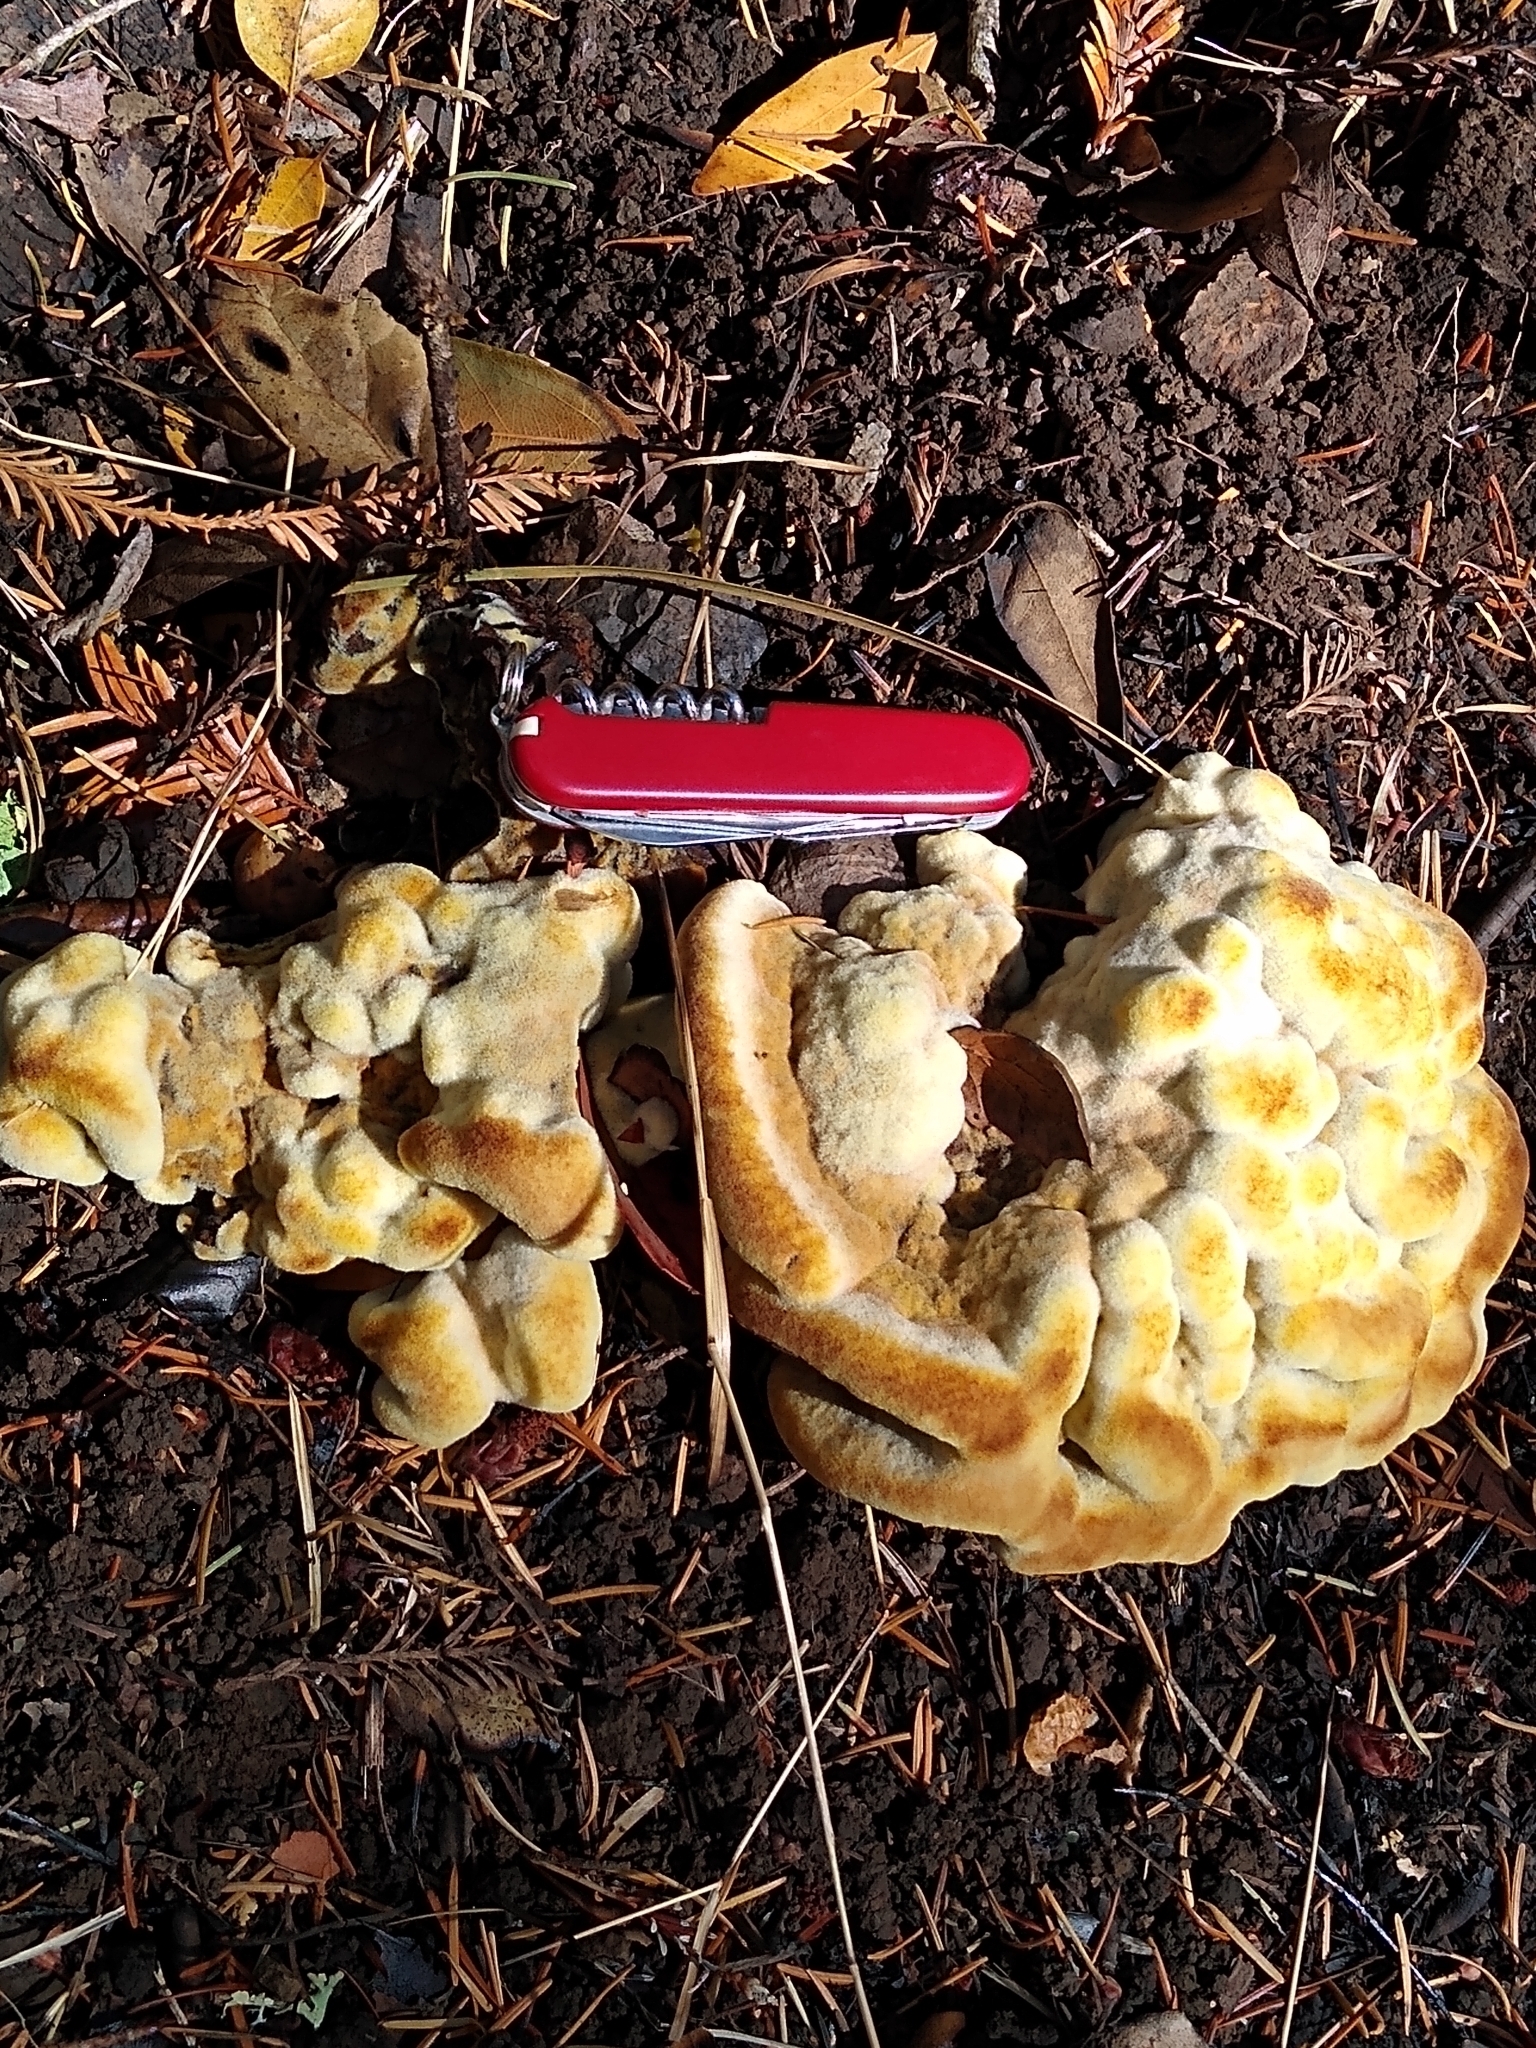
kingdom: Fungi
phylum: Basidiomycota
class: Agaricomycetes
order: Polyporales
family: Laetiporaceae
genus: Laetiporus
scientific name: Laetiporus gilbertsonii
